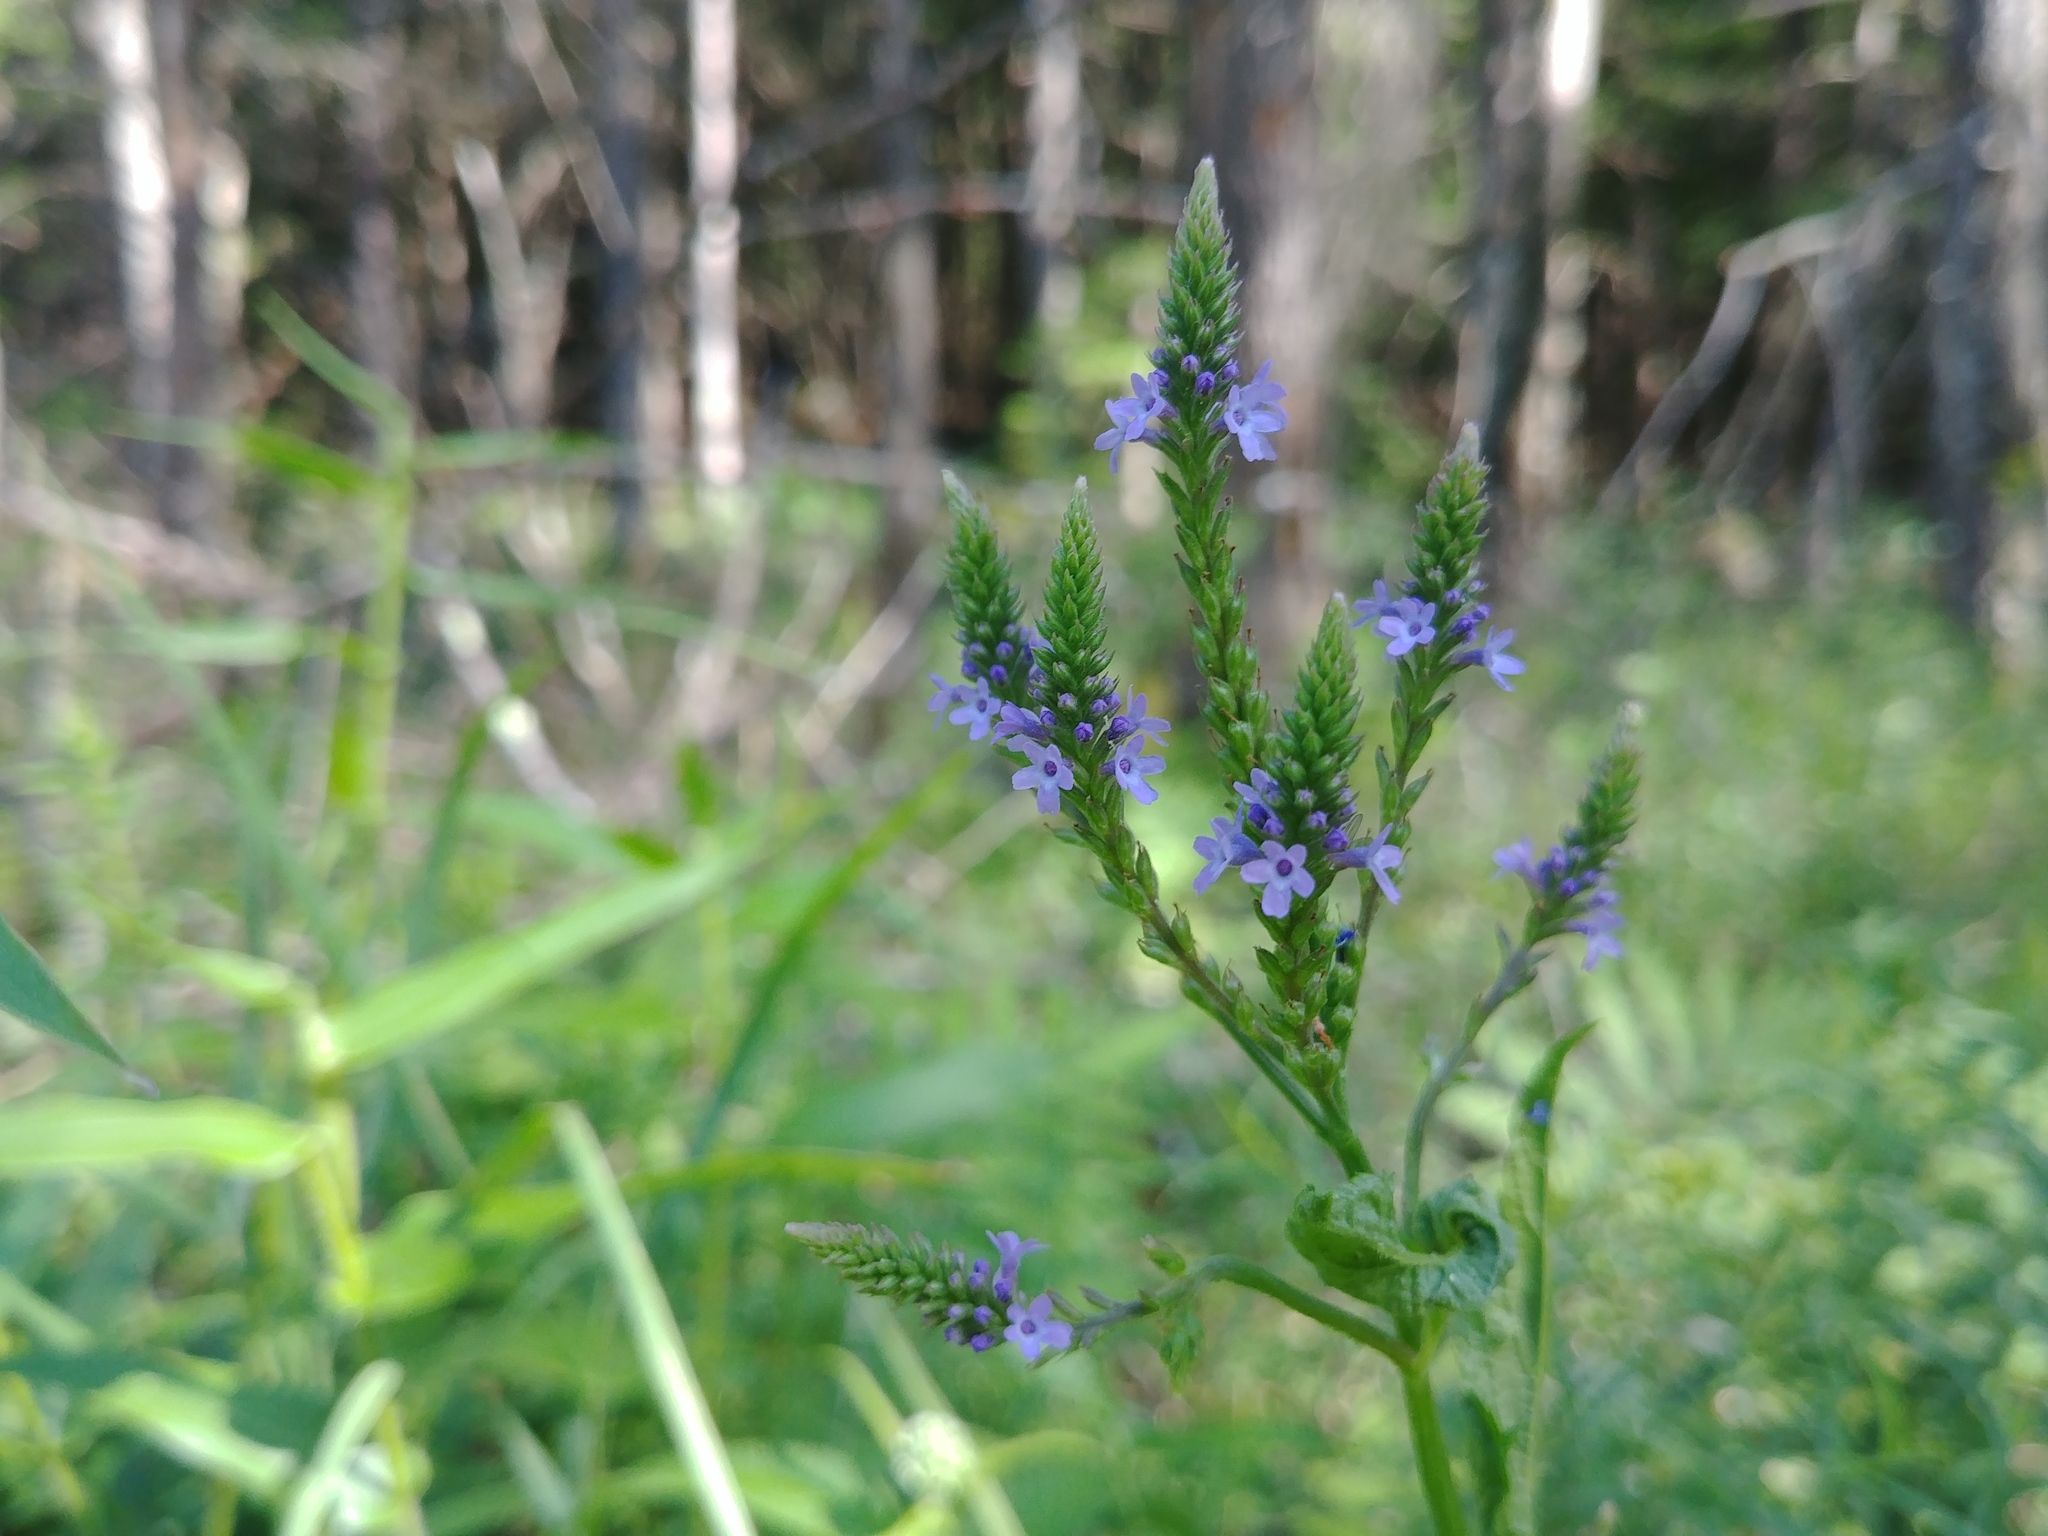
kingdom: Plantae
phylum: Tracheophyta
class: Magnoliopsida
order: Lamiales
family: Verbenaceae
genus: Verbena
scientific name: Verbena hastata
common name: American blue vervain
